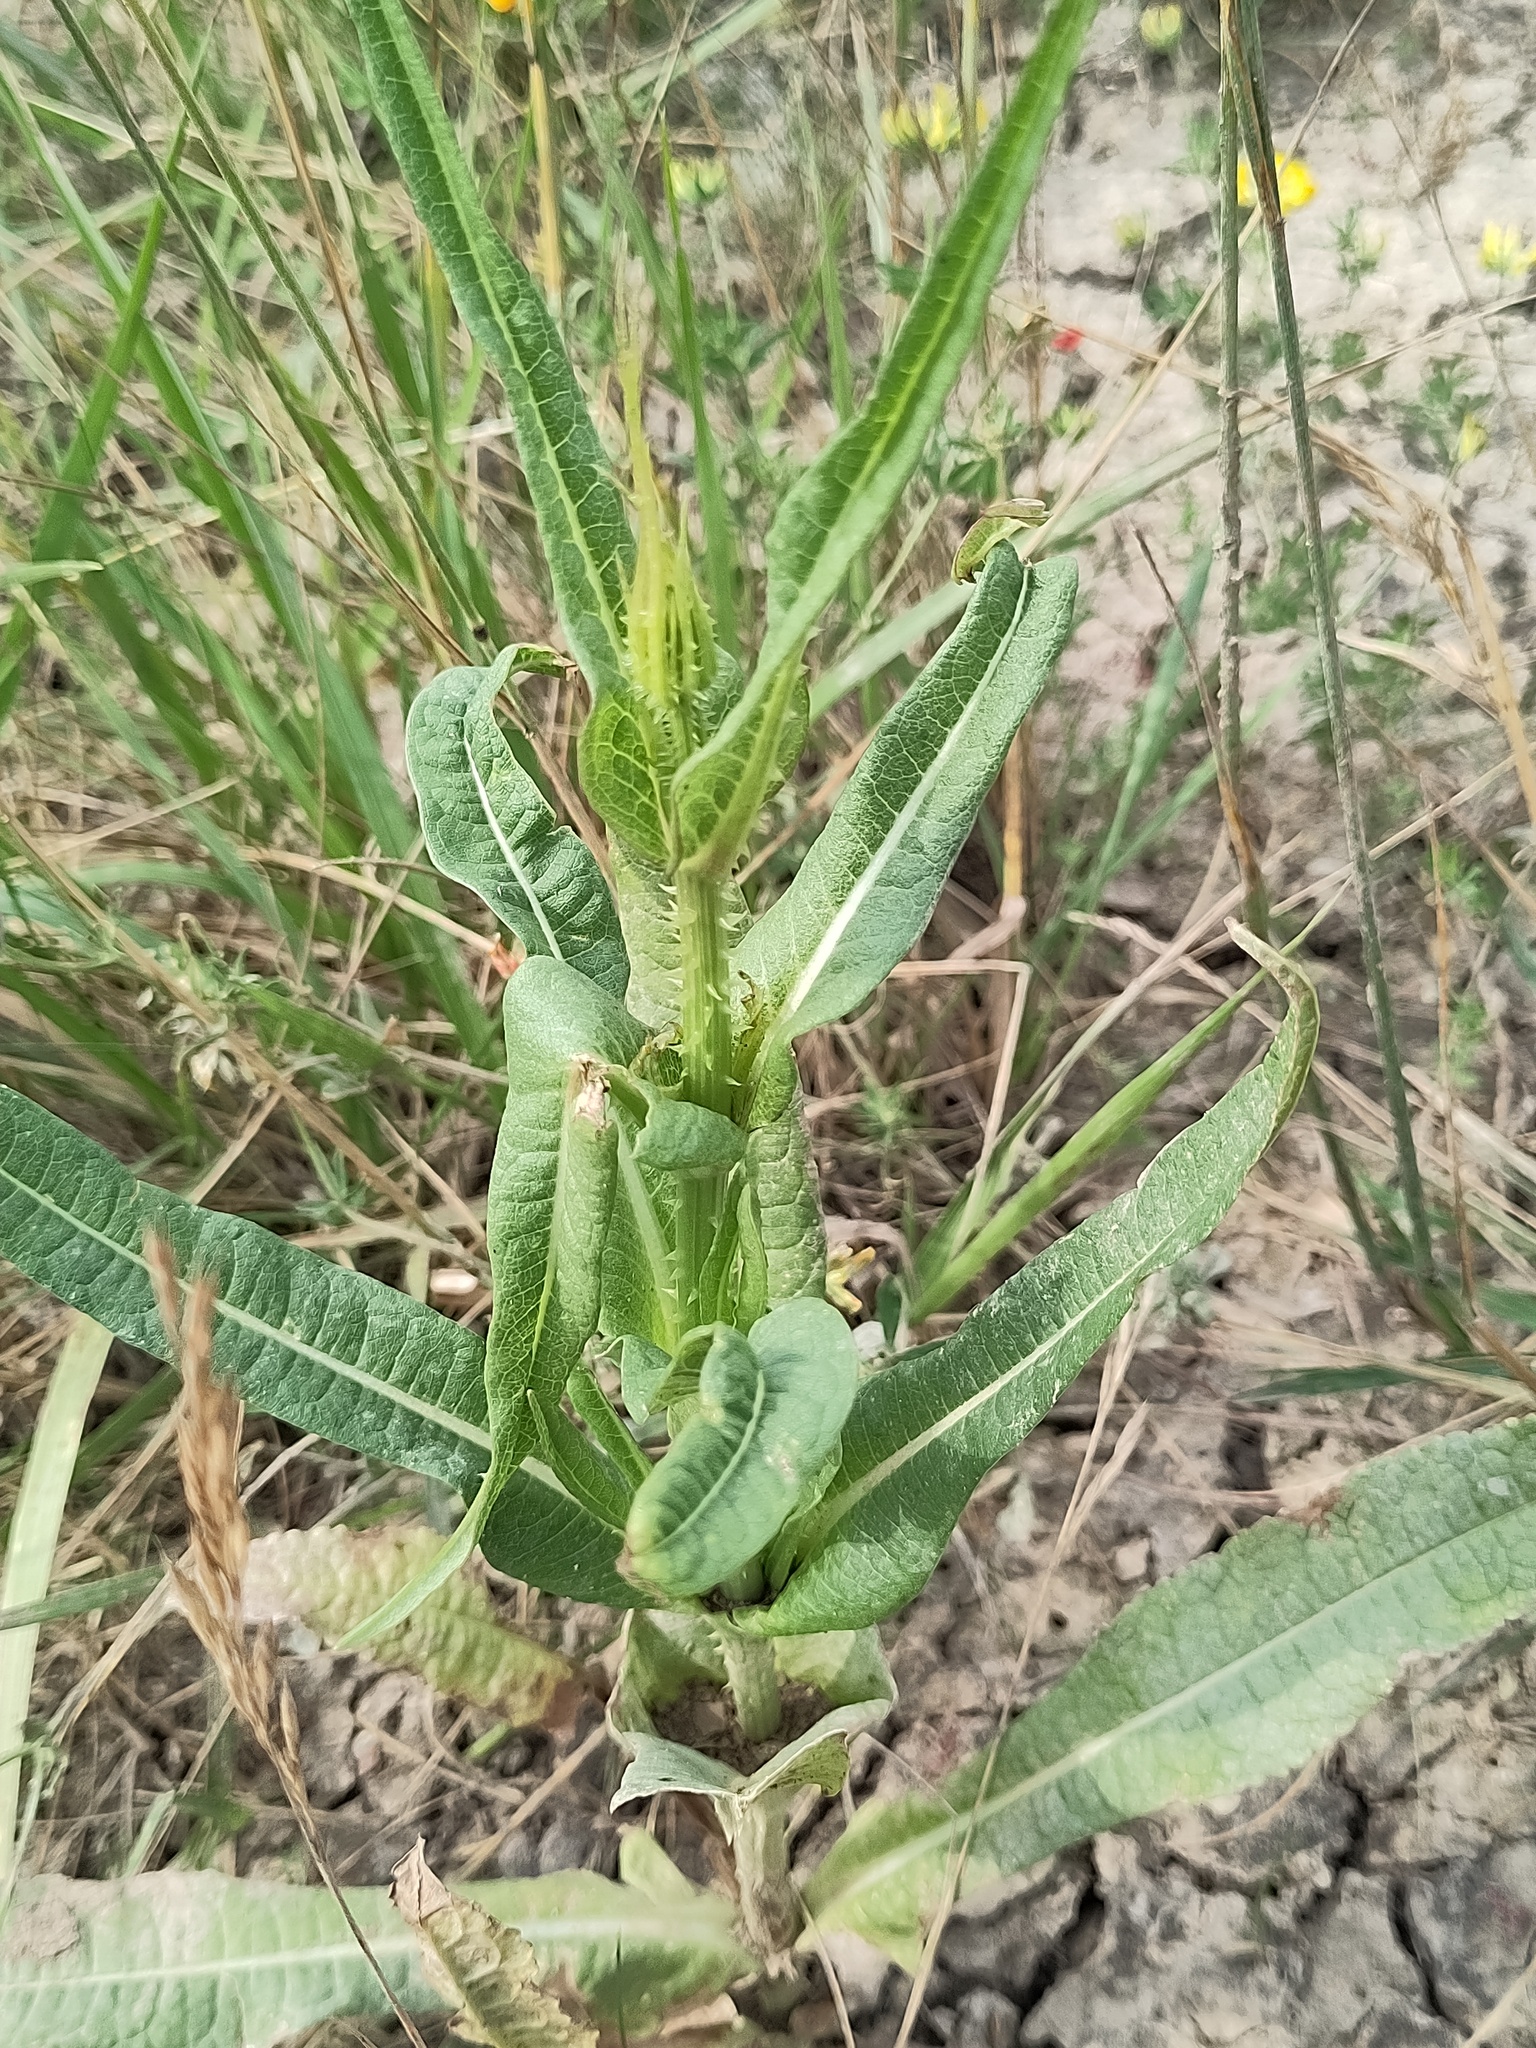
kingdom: Plantae
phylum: Tracheophyta
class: Magnoliopsida
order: Dipsacales
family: Caprifoliaceae
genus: Dipsacus
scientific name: Dipsacus fullonum
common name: Teasel
